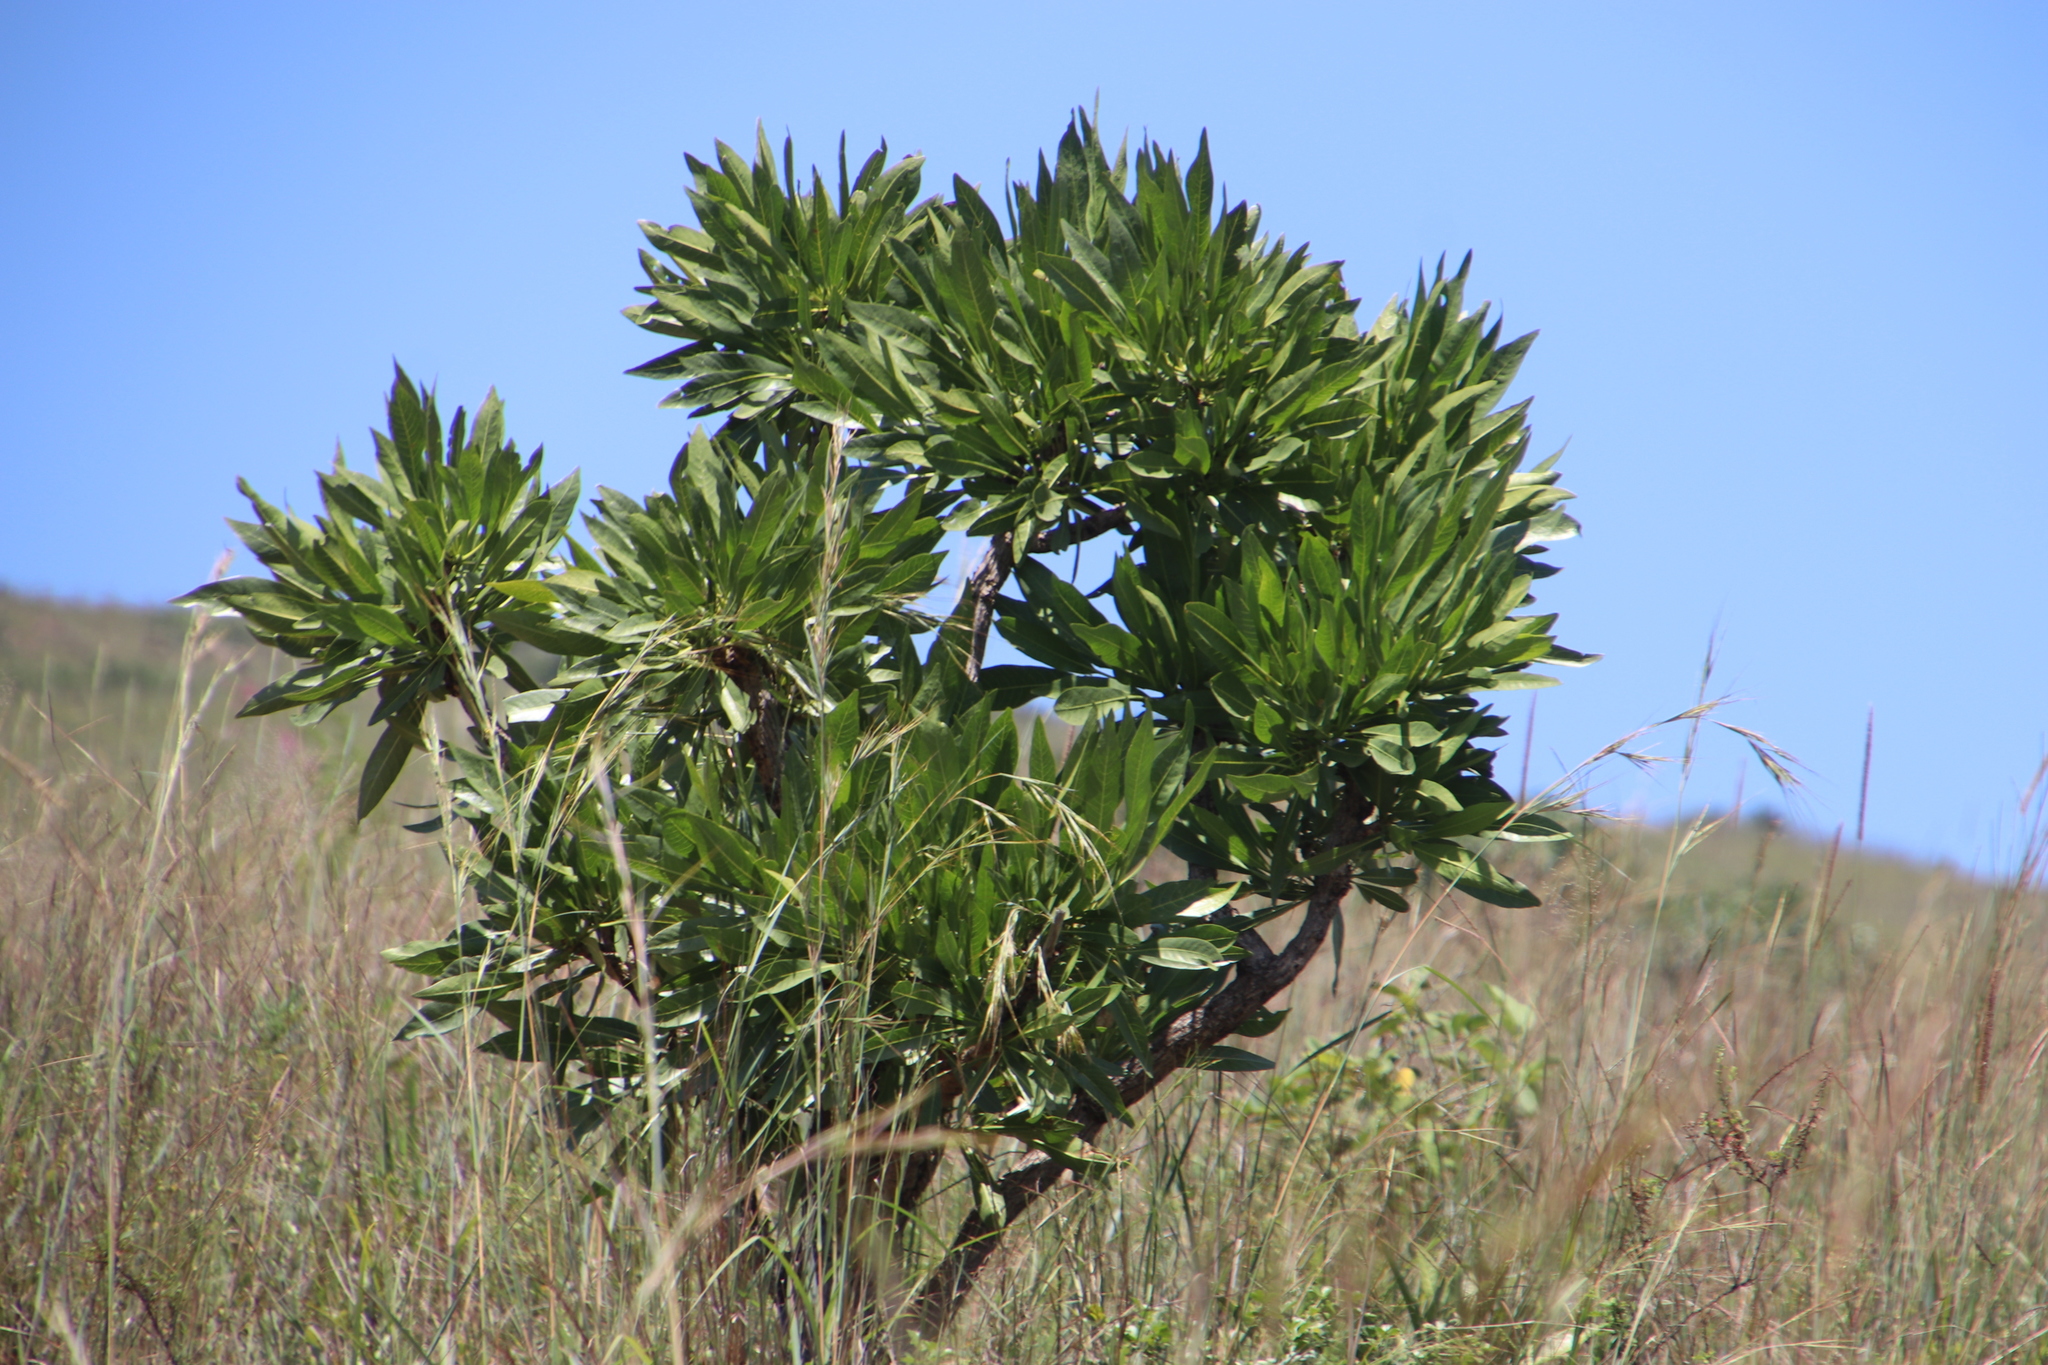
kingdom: Plantae
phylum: Tracheophyta
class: Magnoliopsida
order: Gentianales
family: Rubiaceae
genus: Pavetta
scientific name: Pavetta edentula
